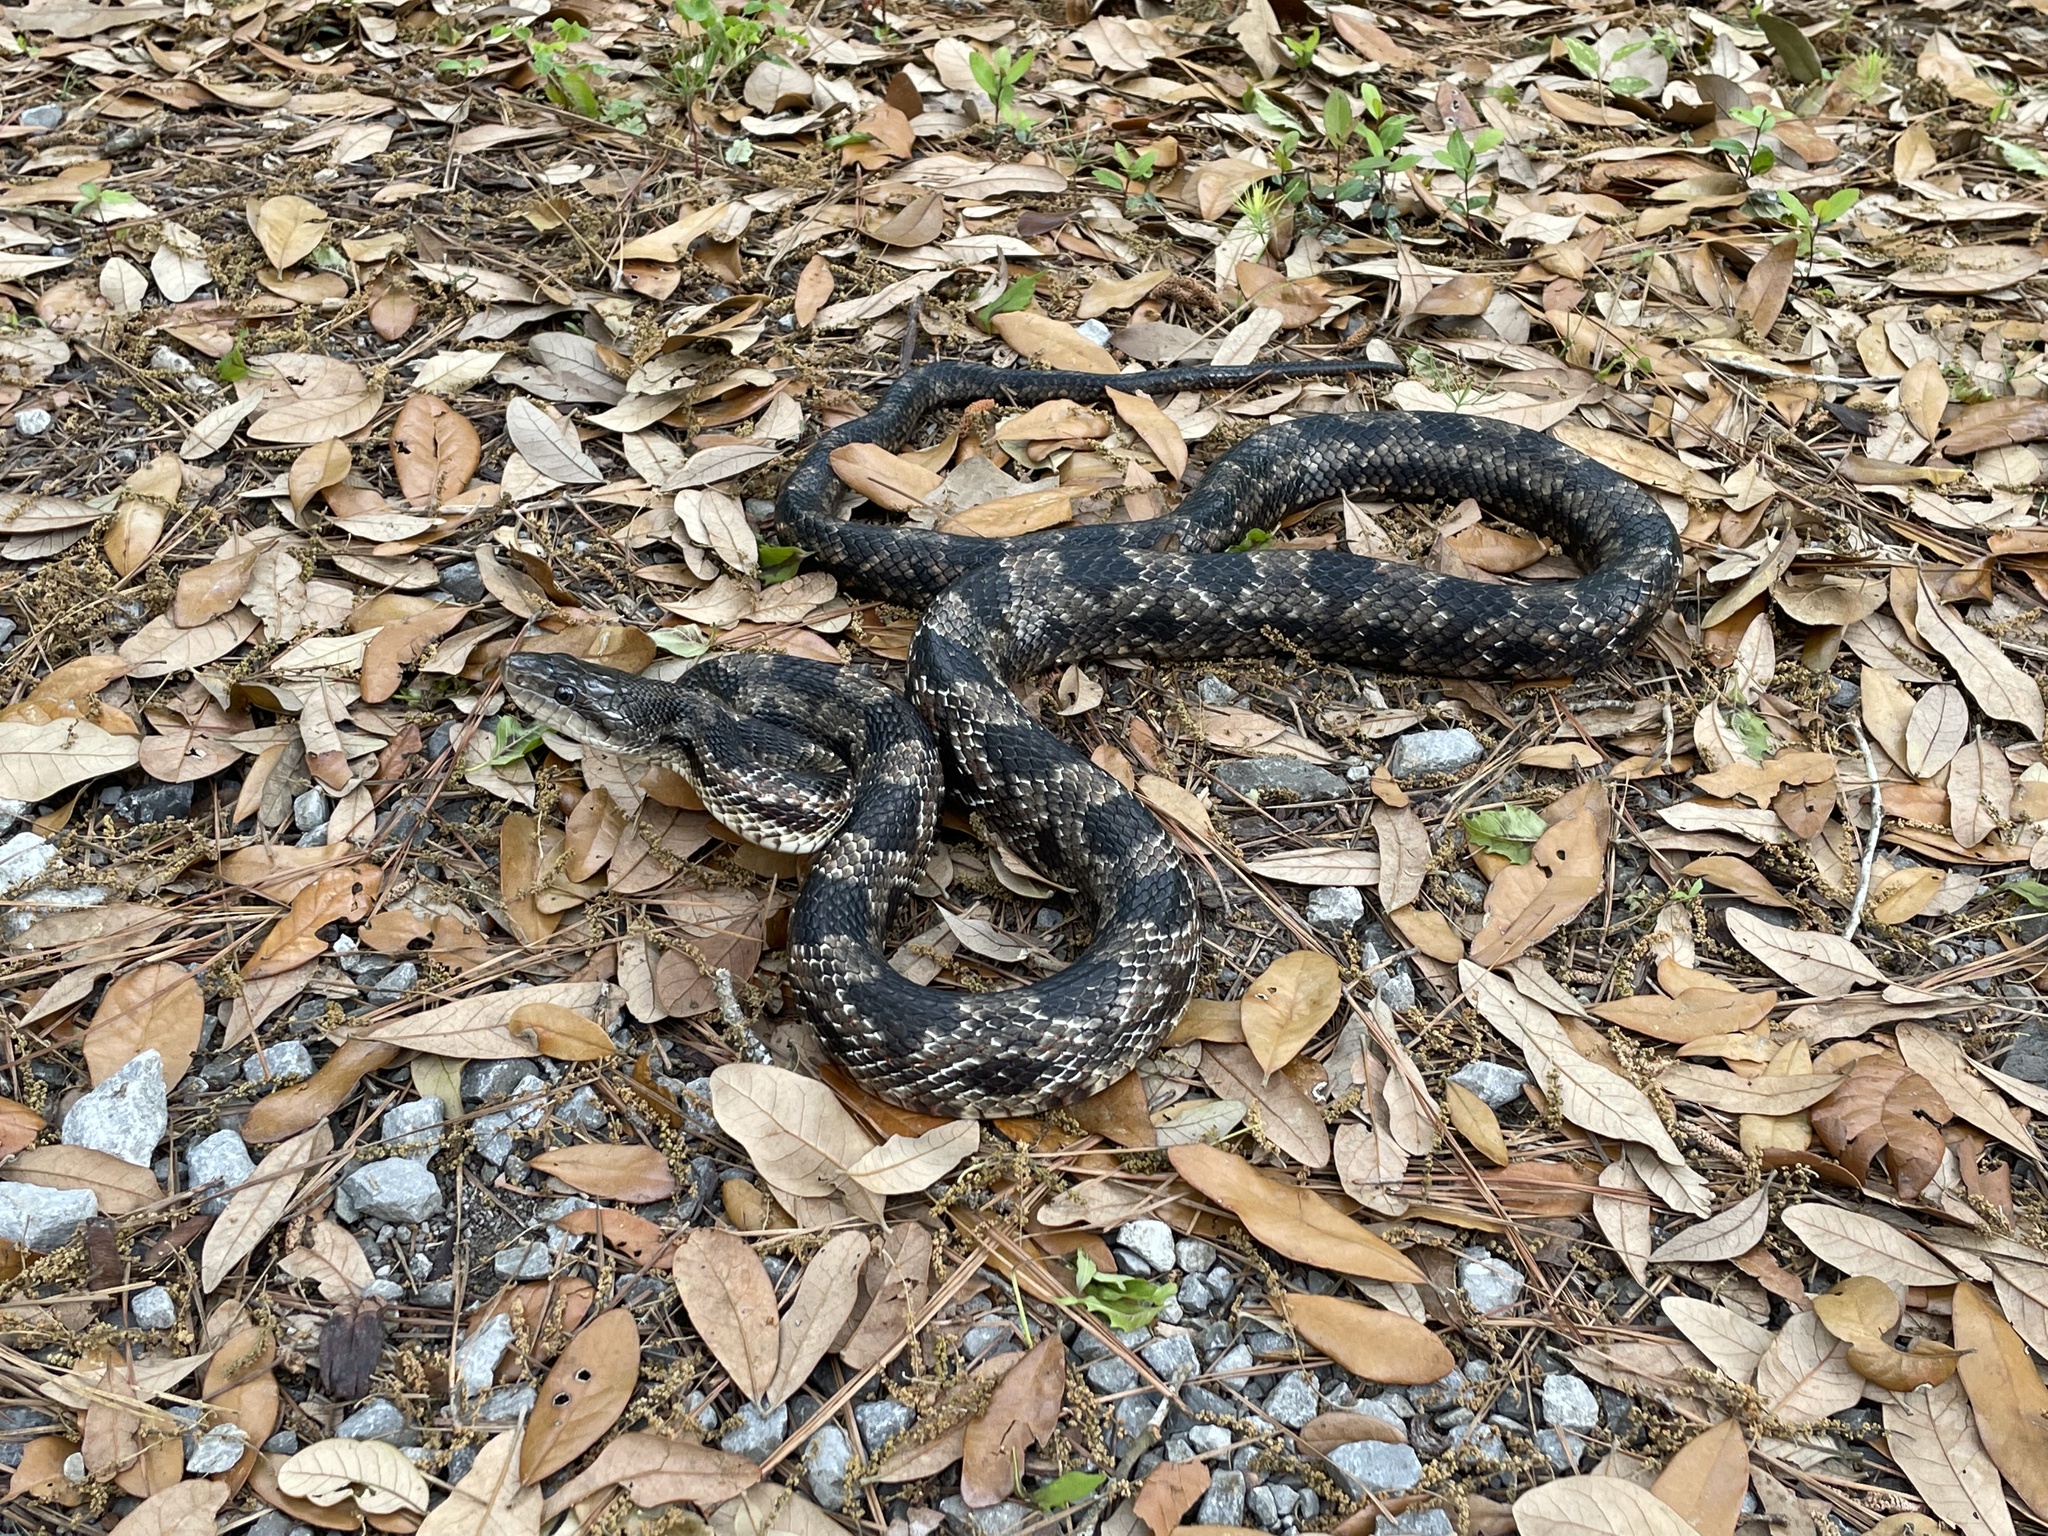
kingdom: Animalia
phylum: Chordata
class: Squamata
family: Colubridae
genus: Pantherophis
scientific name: Pantherophis spiloides
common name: Gray rat snake
